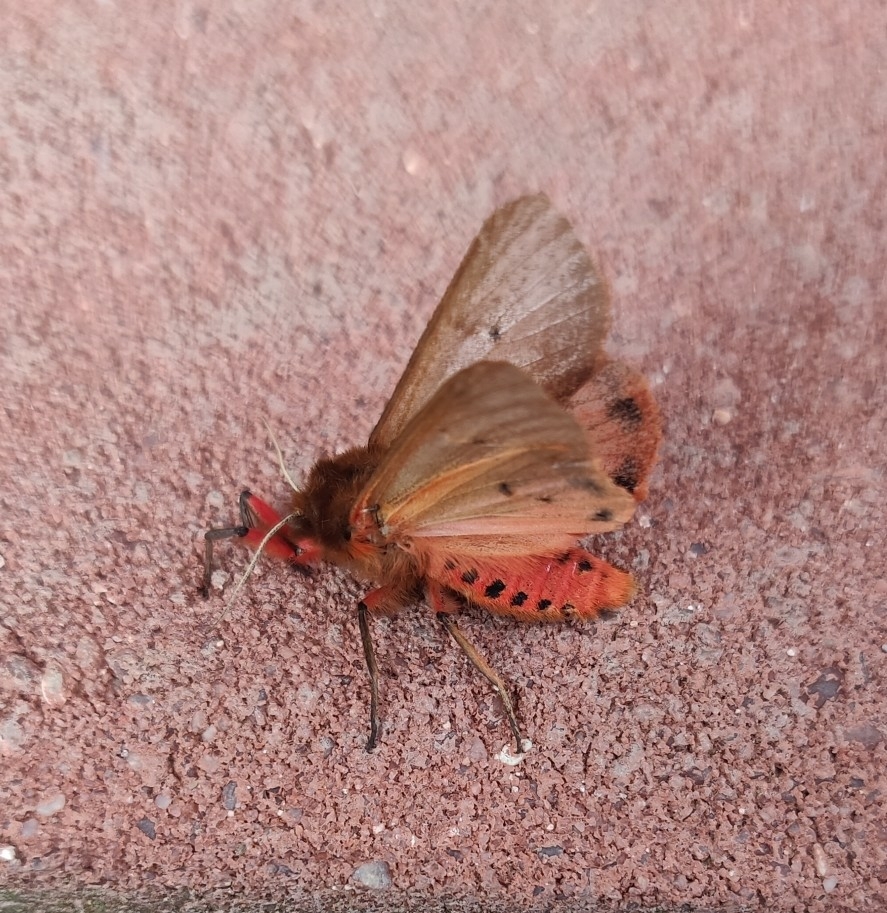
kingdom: Animalia
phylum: Arthropoda
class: Insecta
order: Lepidoptera
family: Erebidae
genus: Phragmatobia
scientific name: Phragmatobia fuliginosa
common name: Ruby tiger
